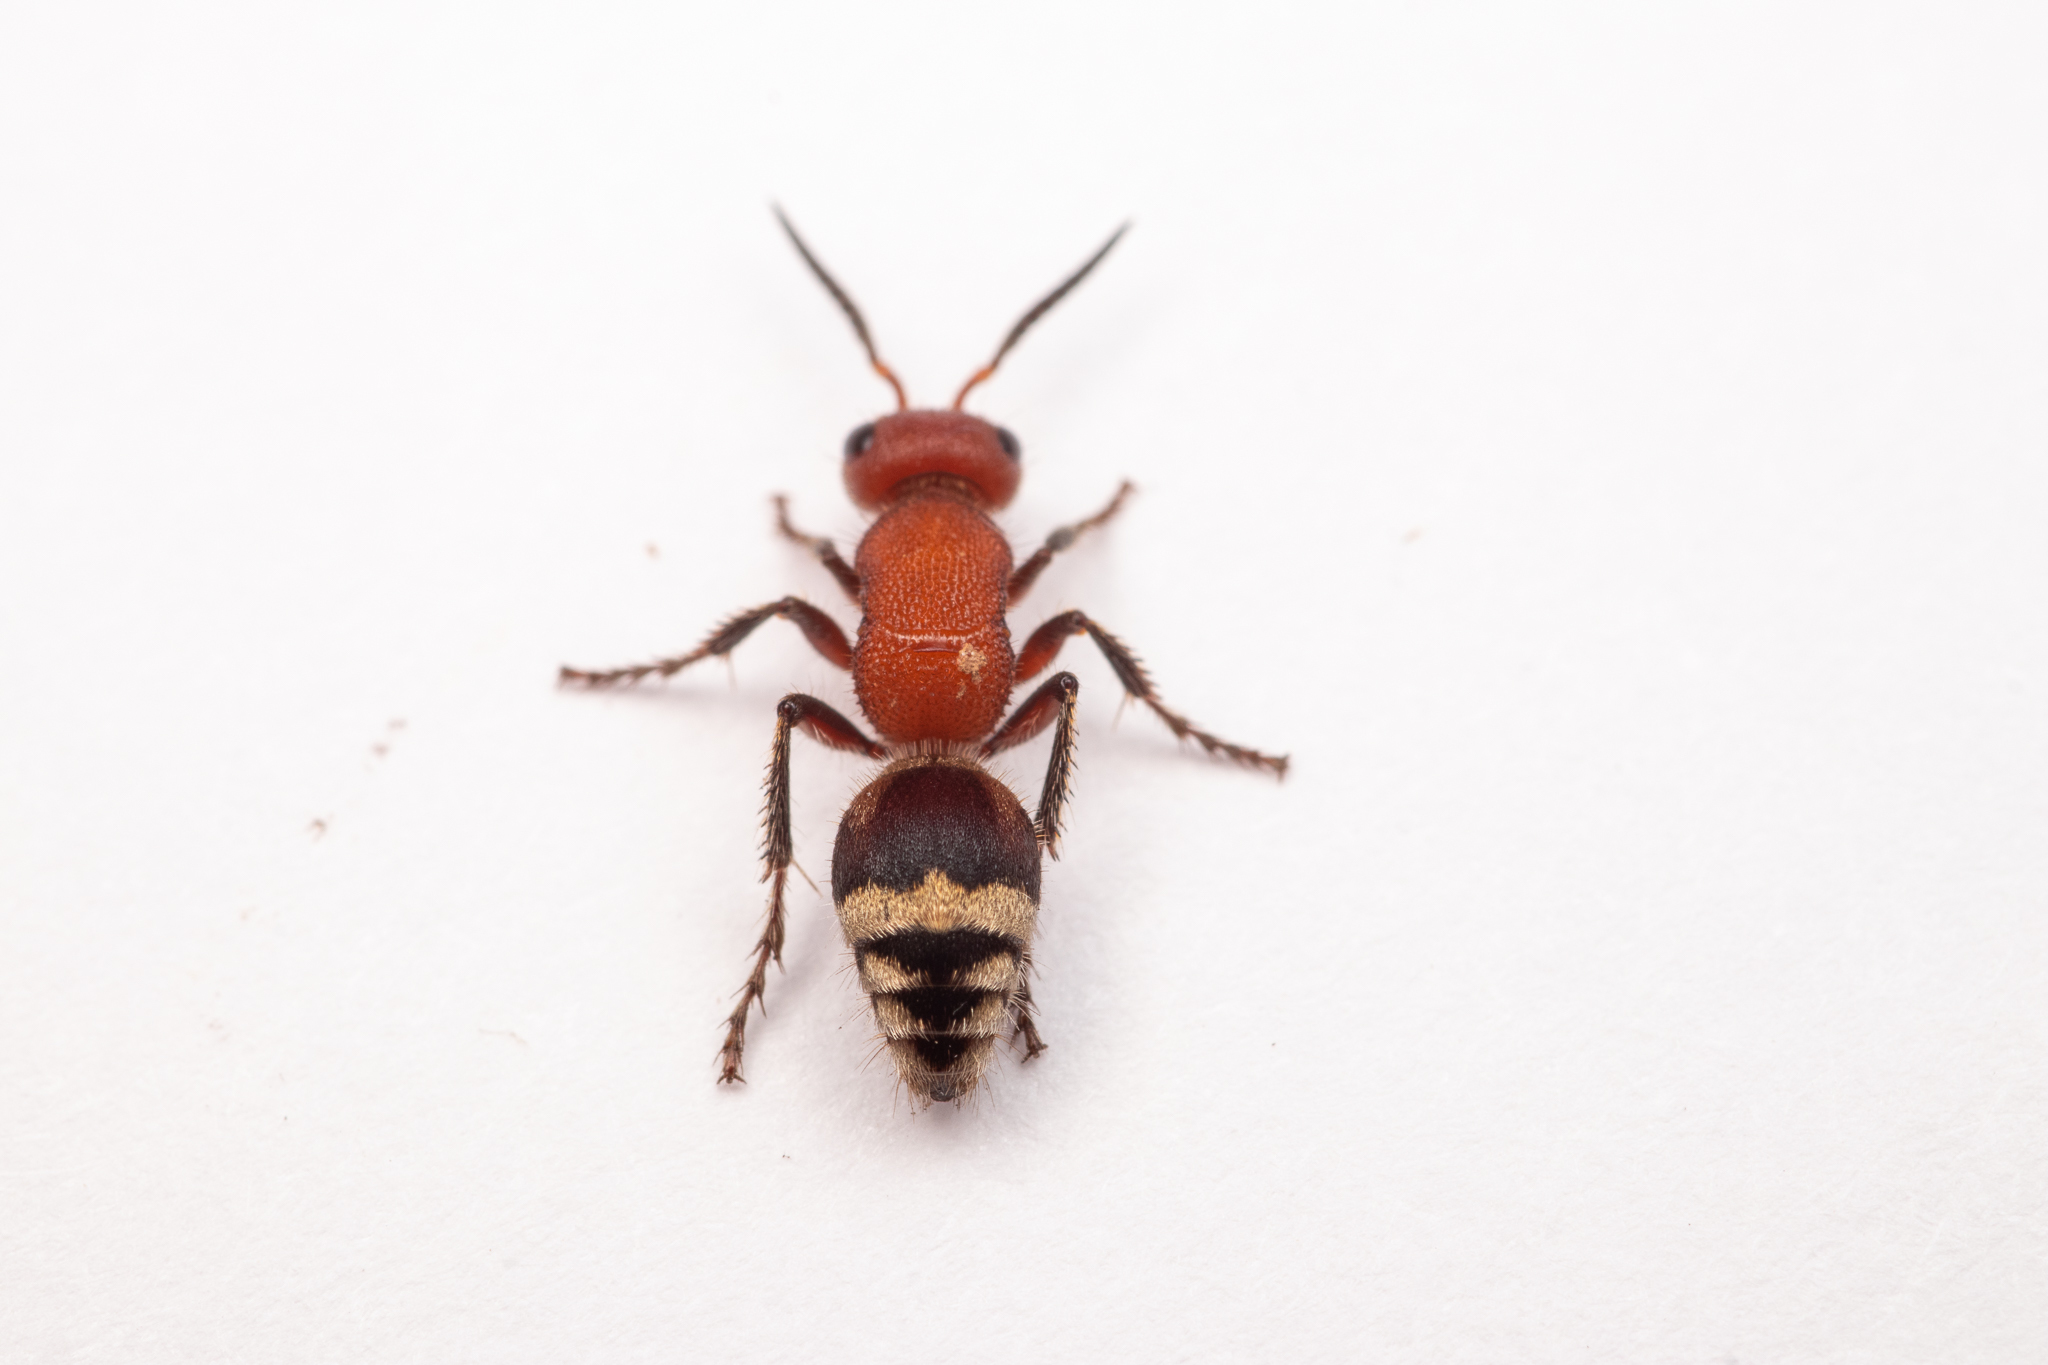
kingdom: Animalia
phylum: Arthropoda
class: Insecta
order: Hymenoptera
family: Mutillidae
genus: Timulla
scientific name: Timulla
